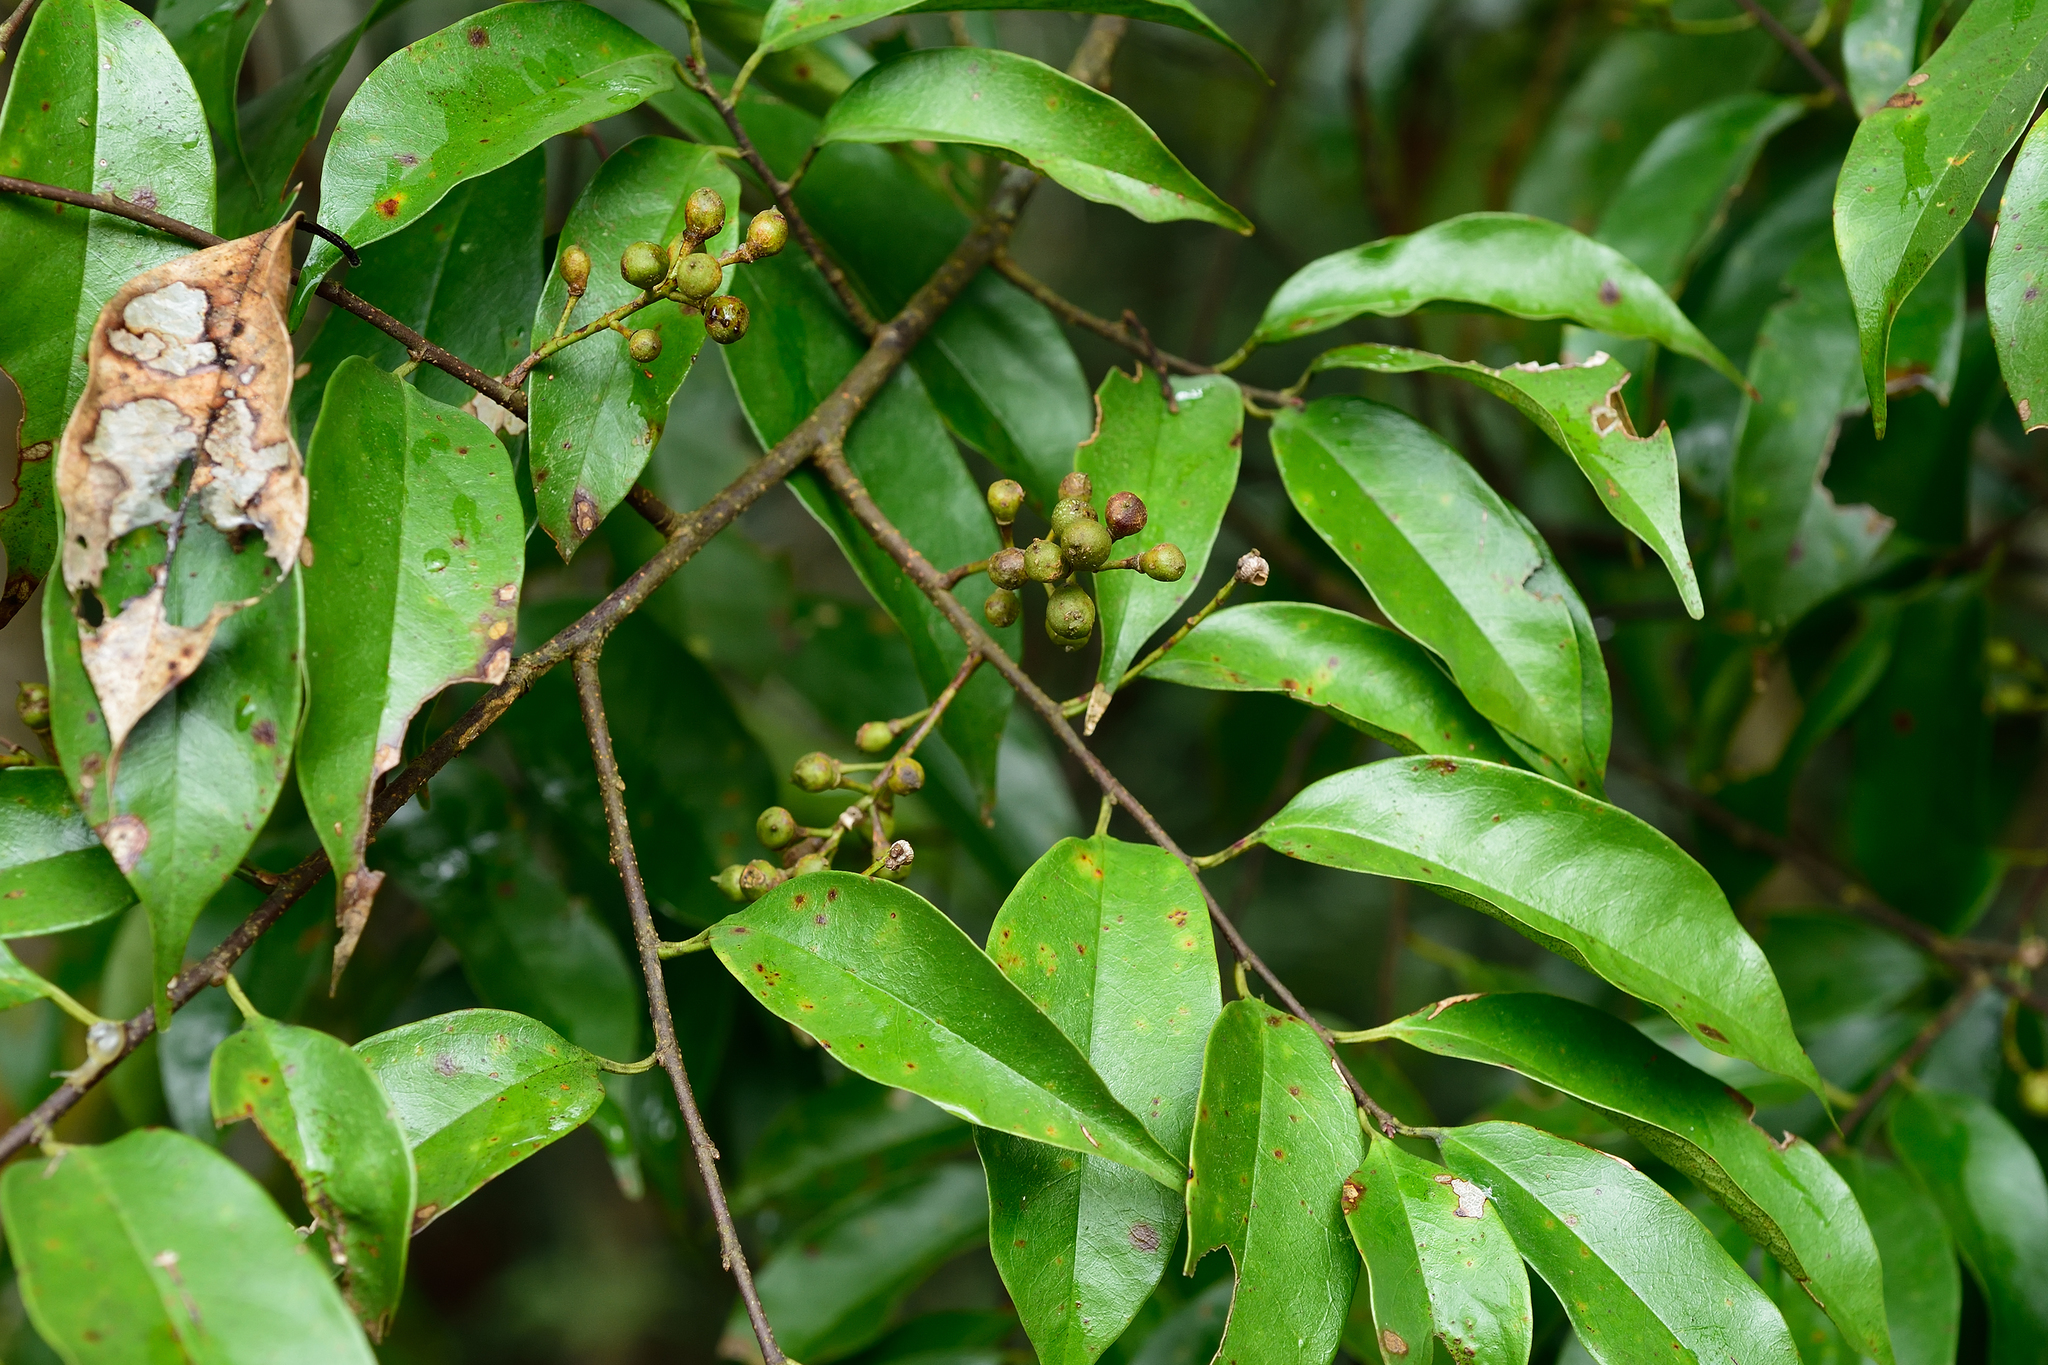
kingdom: Plantae
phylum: Tracheophyta
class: Magnoliopsida
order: Rosales
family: Rosaceae
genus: Prunus
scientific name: Prunus phaeosticta
